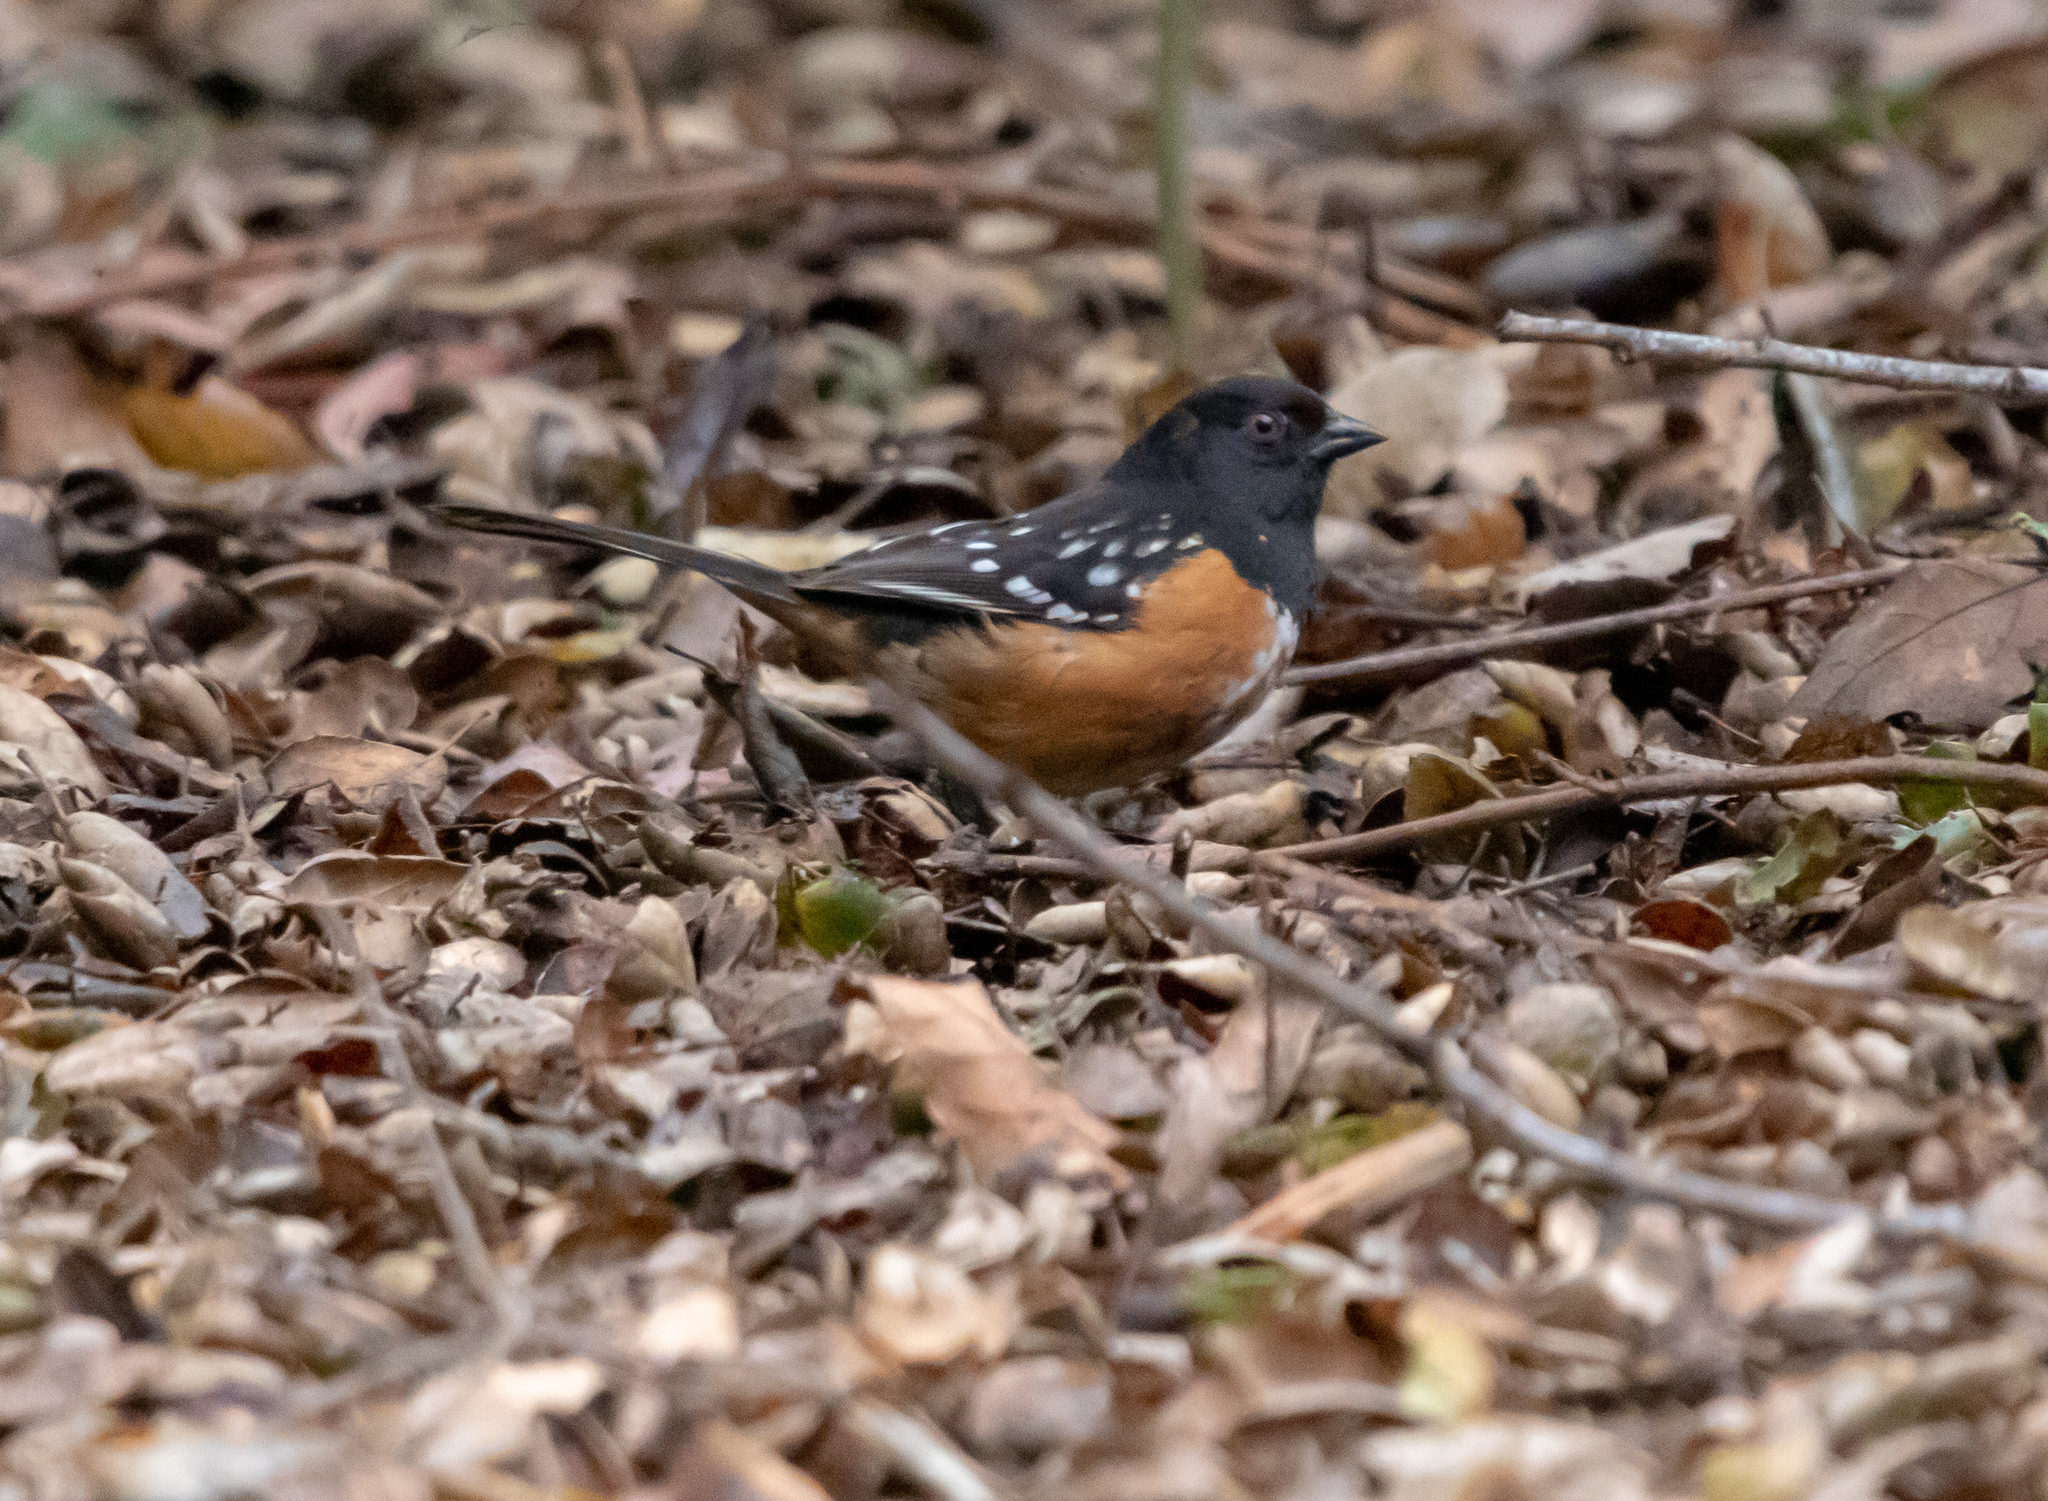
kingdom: Animalia
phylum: Chordata
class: Aves
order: Passeriformes
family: Passerellidae
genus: Pipilo
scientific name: Pipilo maculatus
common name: Spotted towhee
